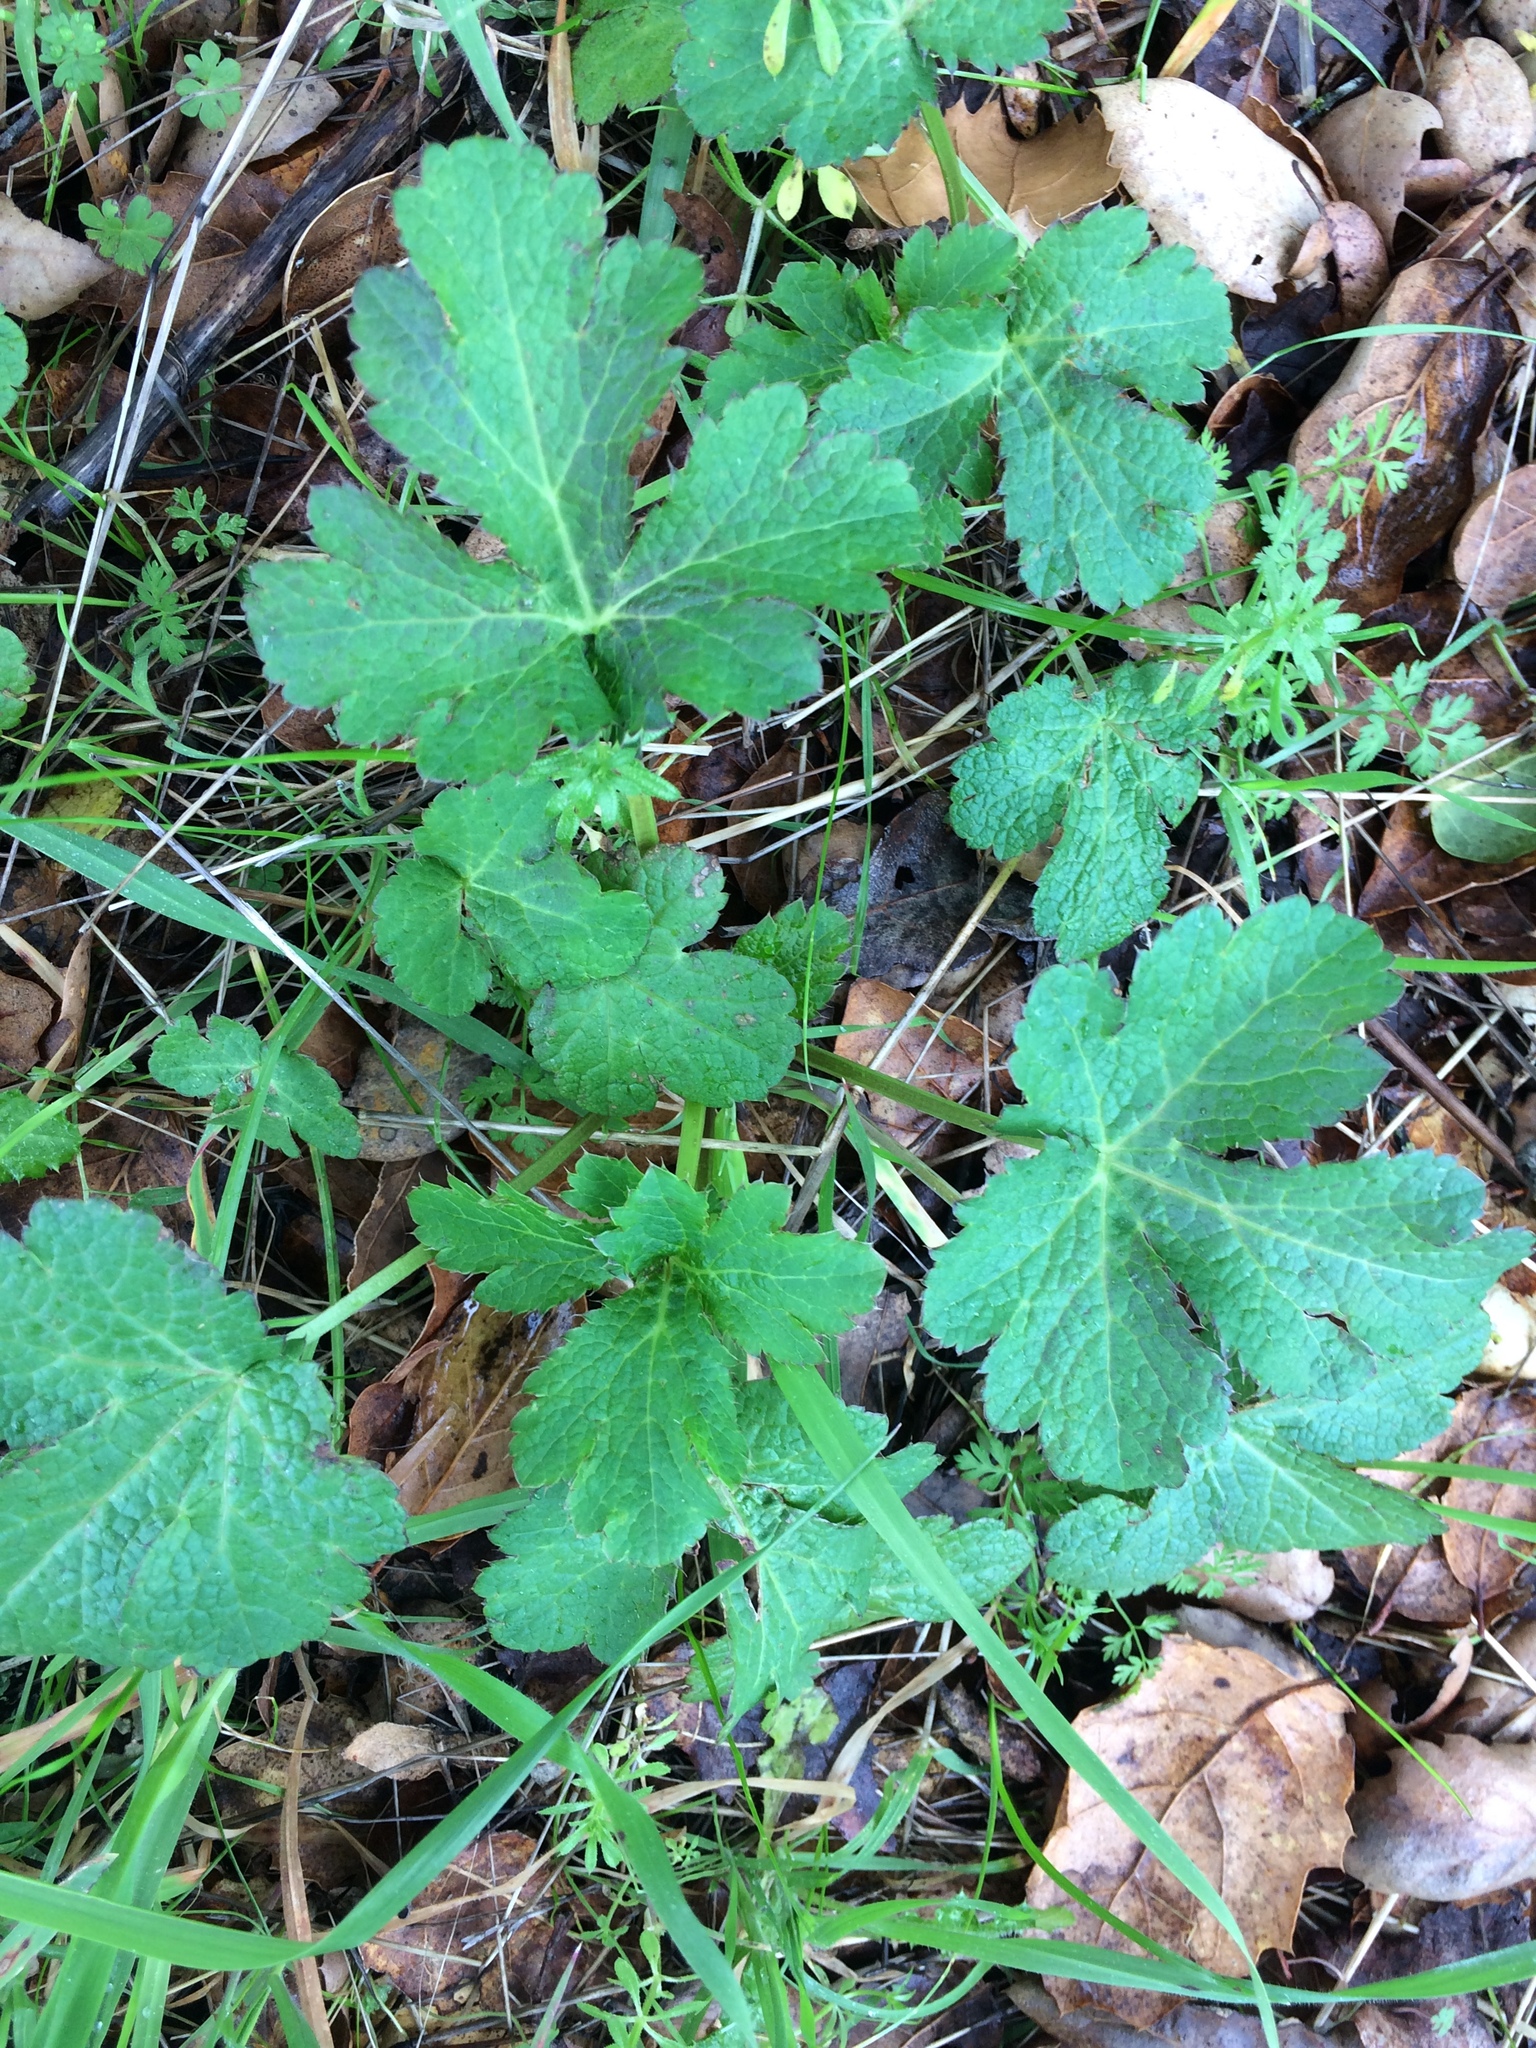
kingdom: Plantae
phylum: Tracheophyta
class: Magnoliopsida
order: Apiales
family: Apiaceae
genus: Sanicula
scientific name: Sanicula crassicaulis
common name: Western snakeroot
